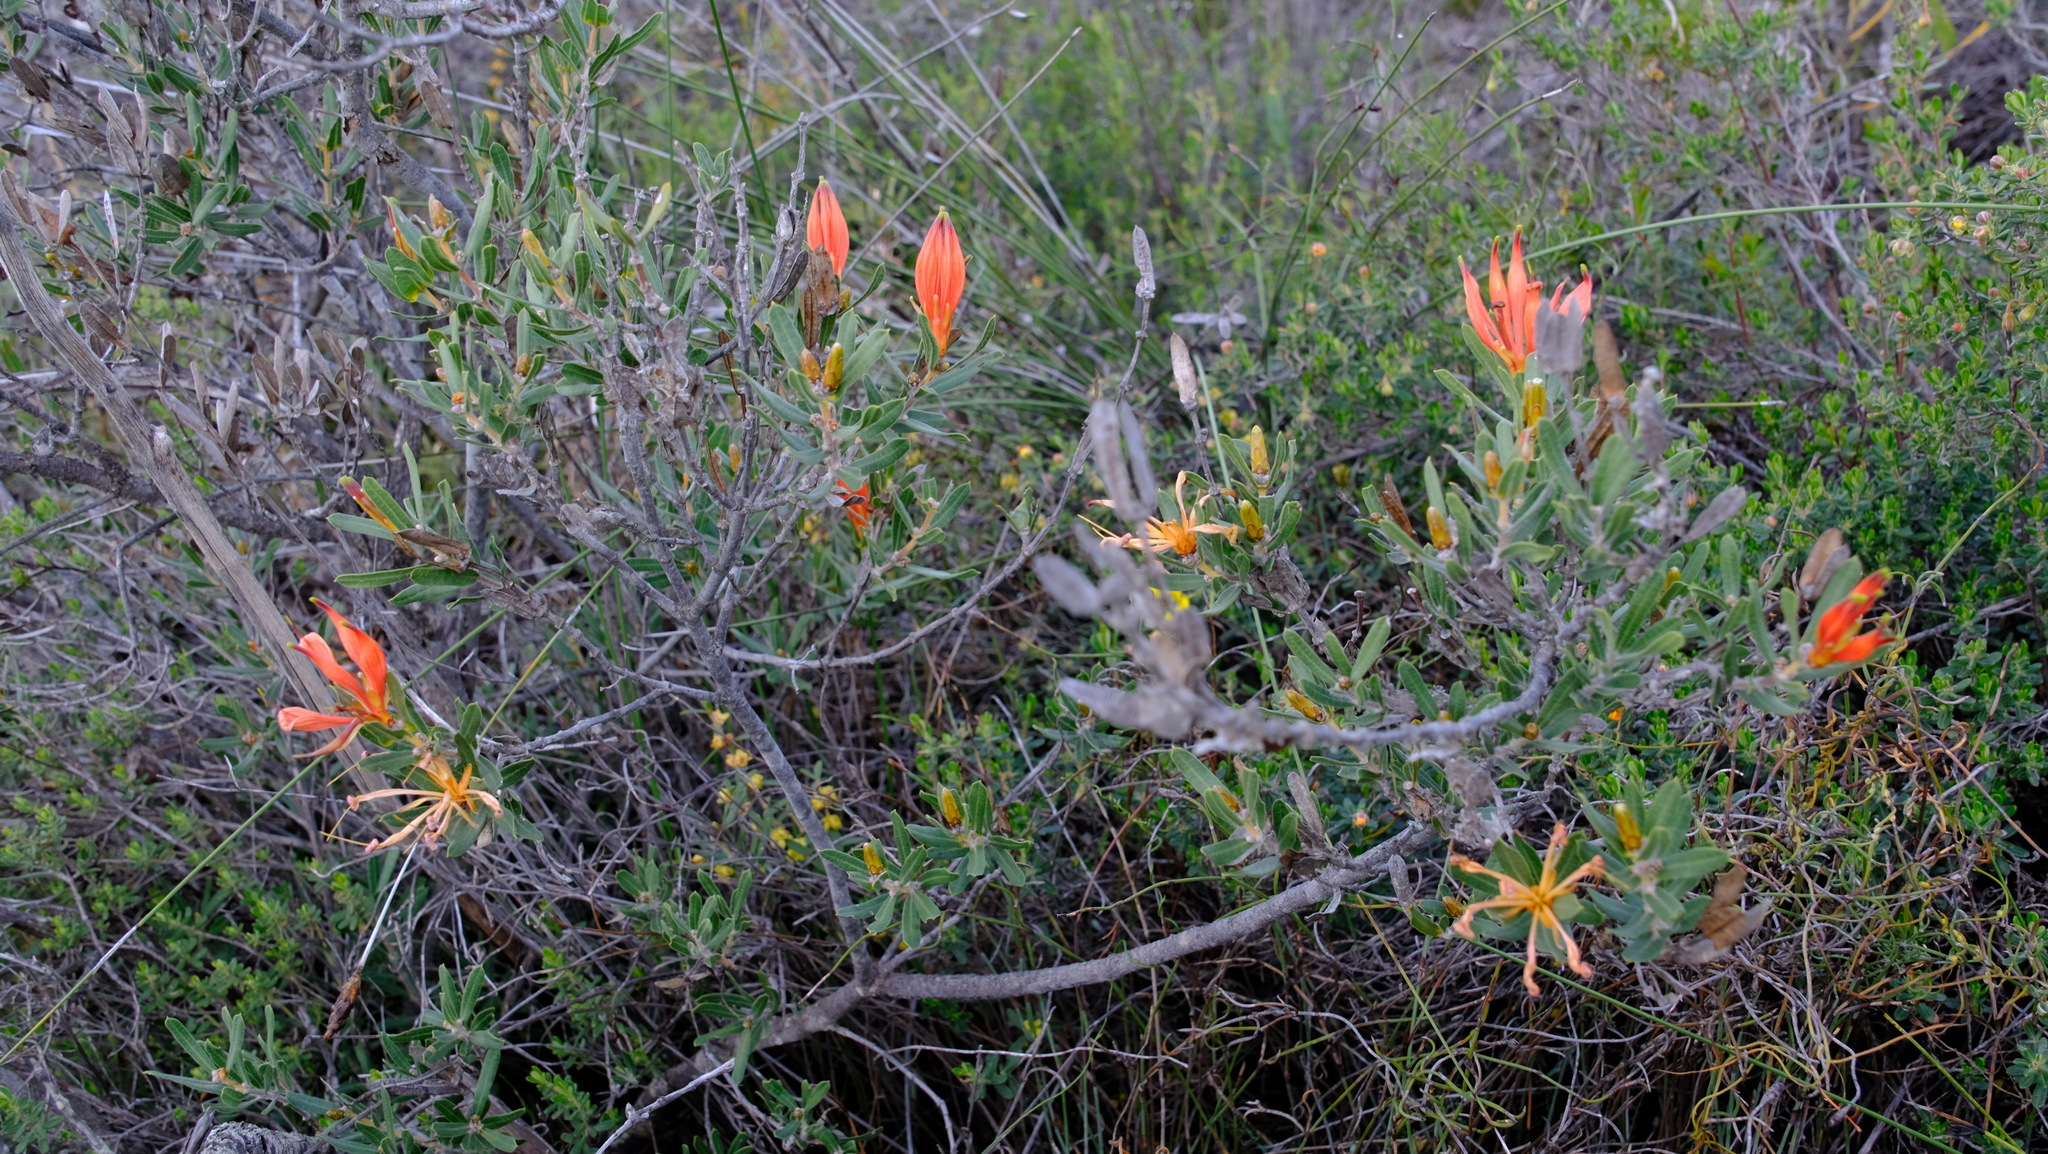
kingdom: Plantae
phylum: Tracheophyta
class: Magnoliopsida
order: Proteales
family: Proteaceae
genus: Lambertia
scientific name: Lambertia multiflora
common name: Many-flowered honeysuckle
